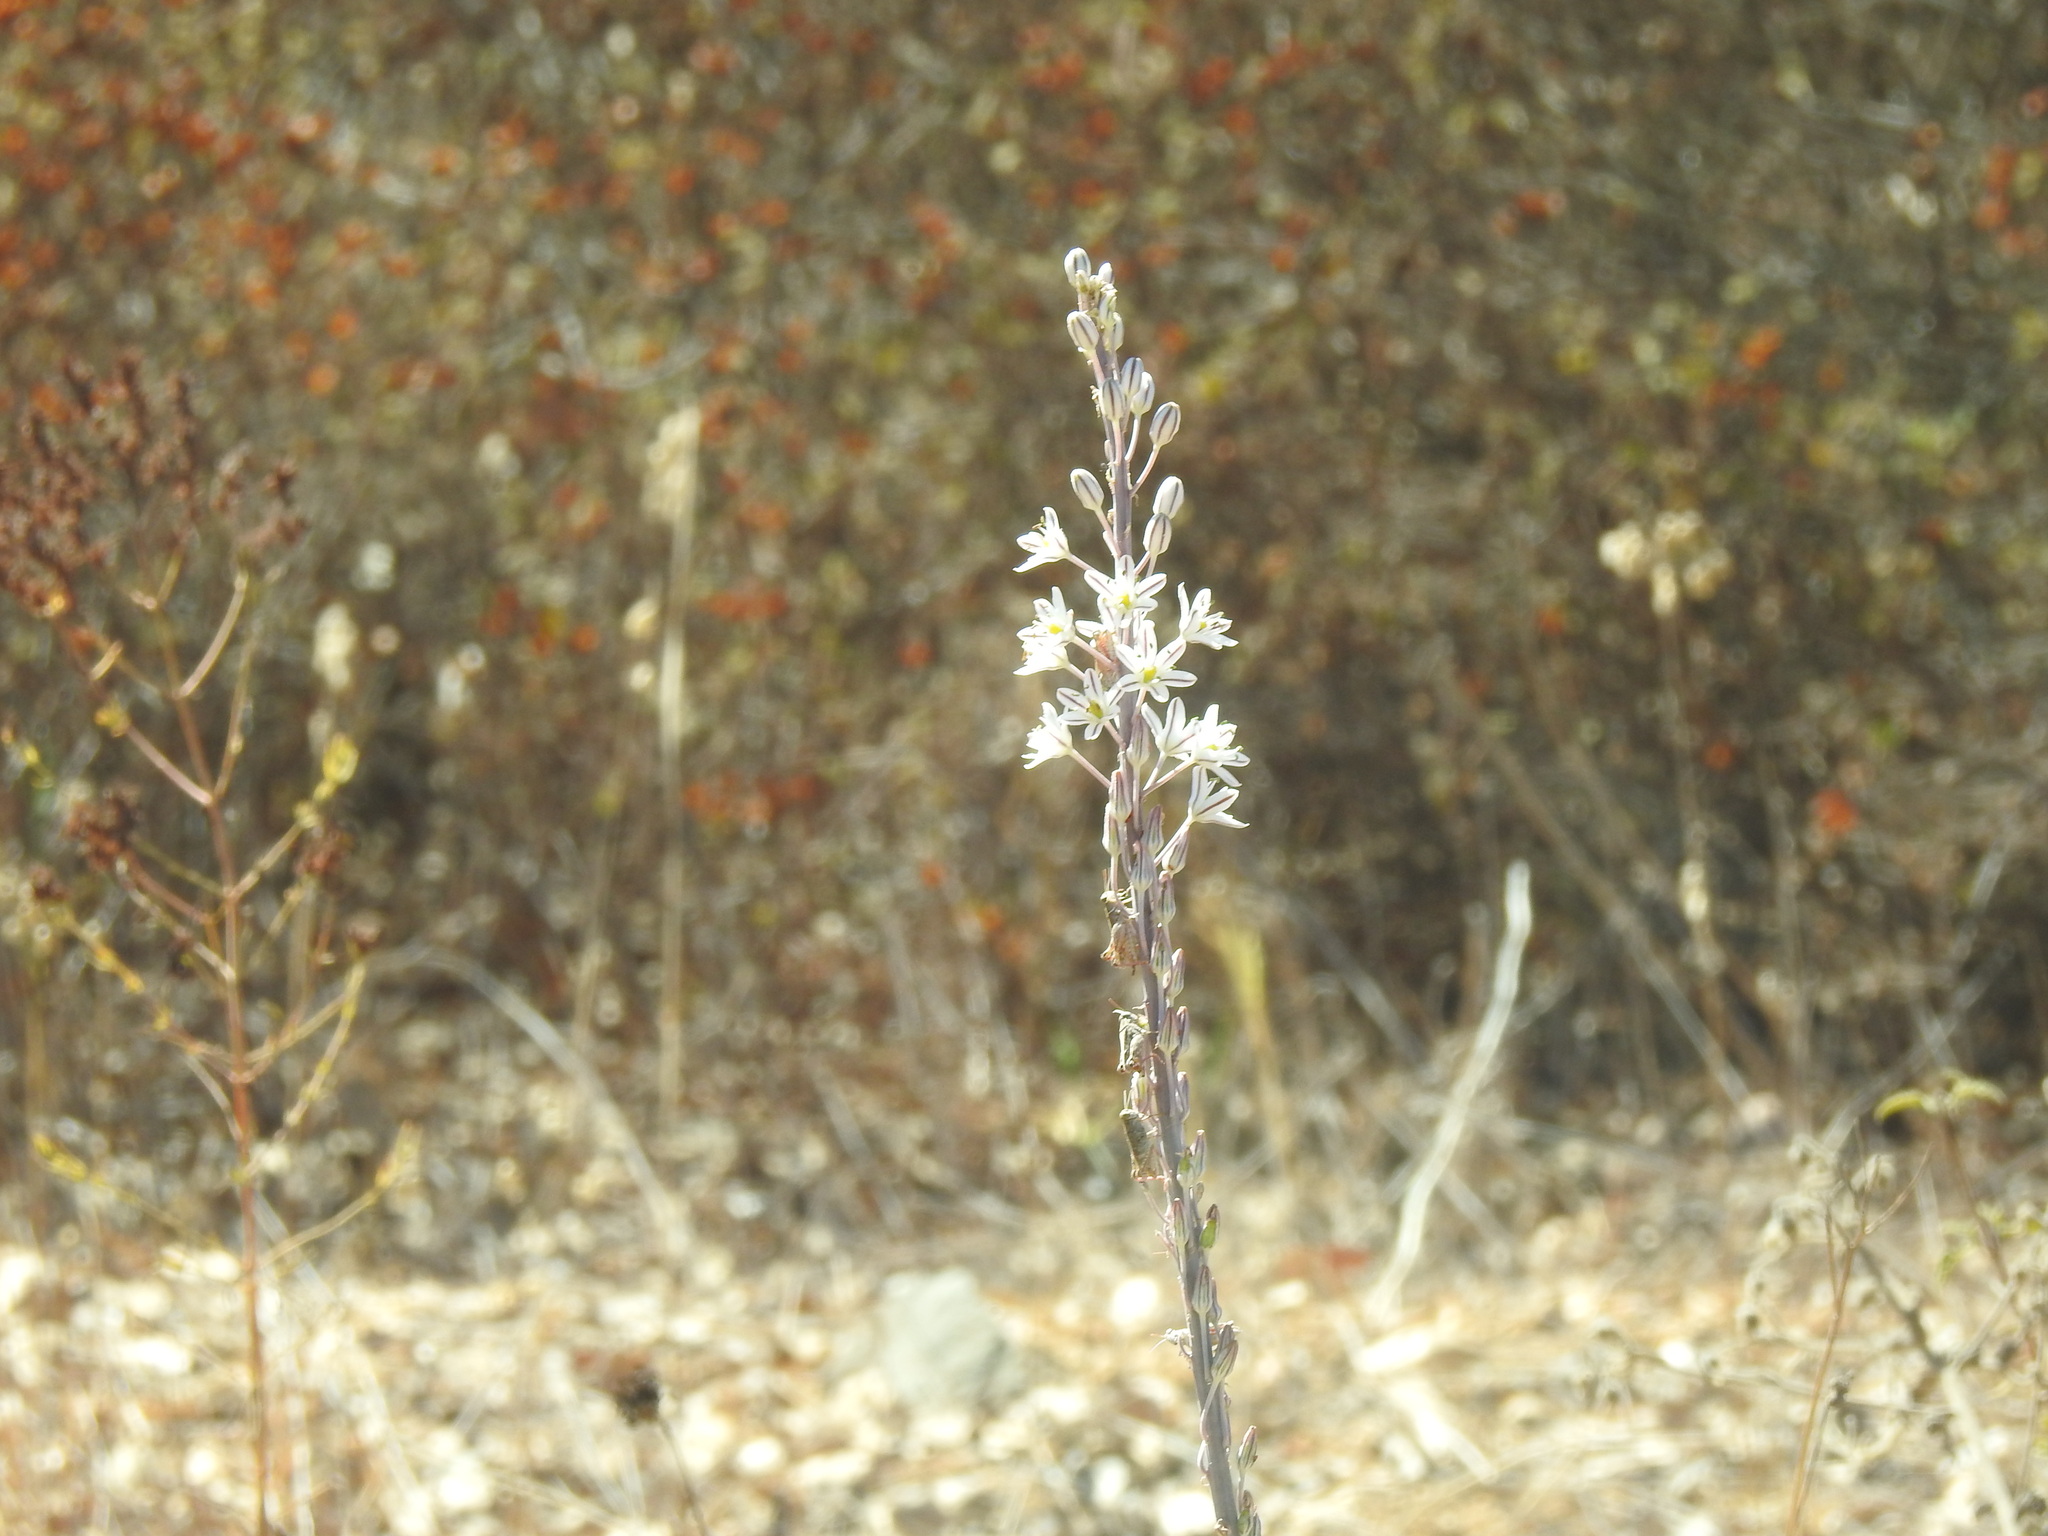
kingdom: Plantae
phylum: Tracheophyta
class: Liliopsida
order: Asparagales
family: Asparagaceae
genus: Drimia
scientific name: Drimia maritima
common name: Maritime squill
